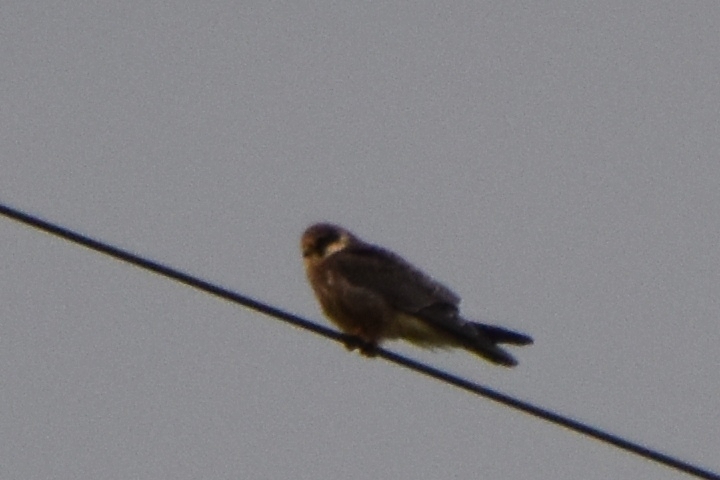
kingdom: Animalia
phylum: Chordata
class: Aves
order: Falconiformes
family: Falconidae
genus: Falco
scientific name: Falco vespertinus
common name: Red-footed falcon
